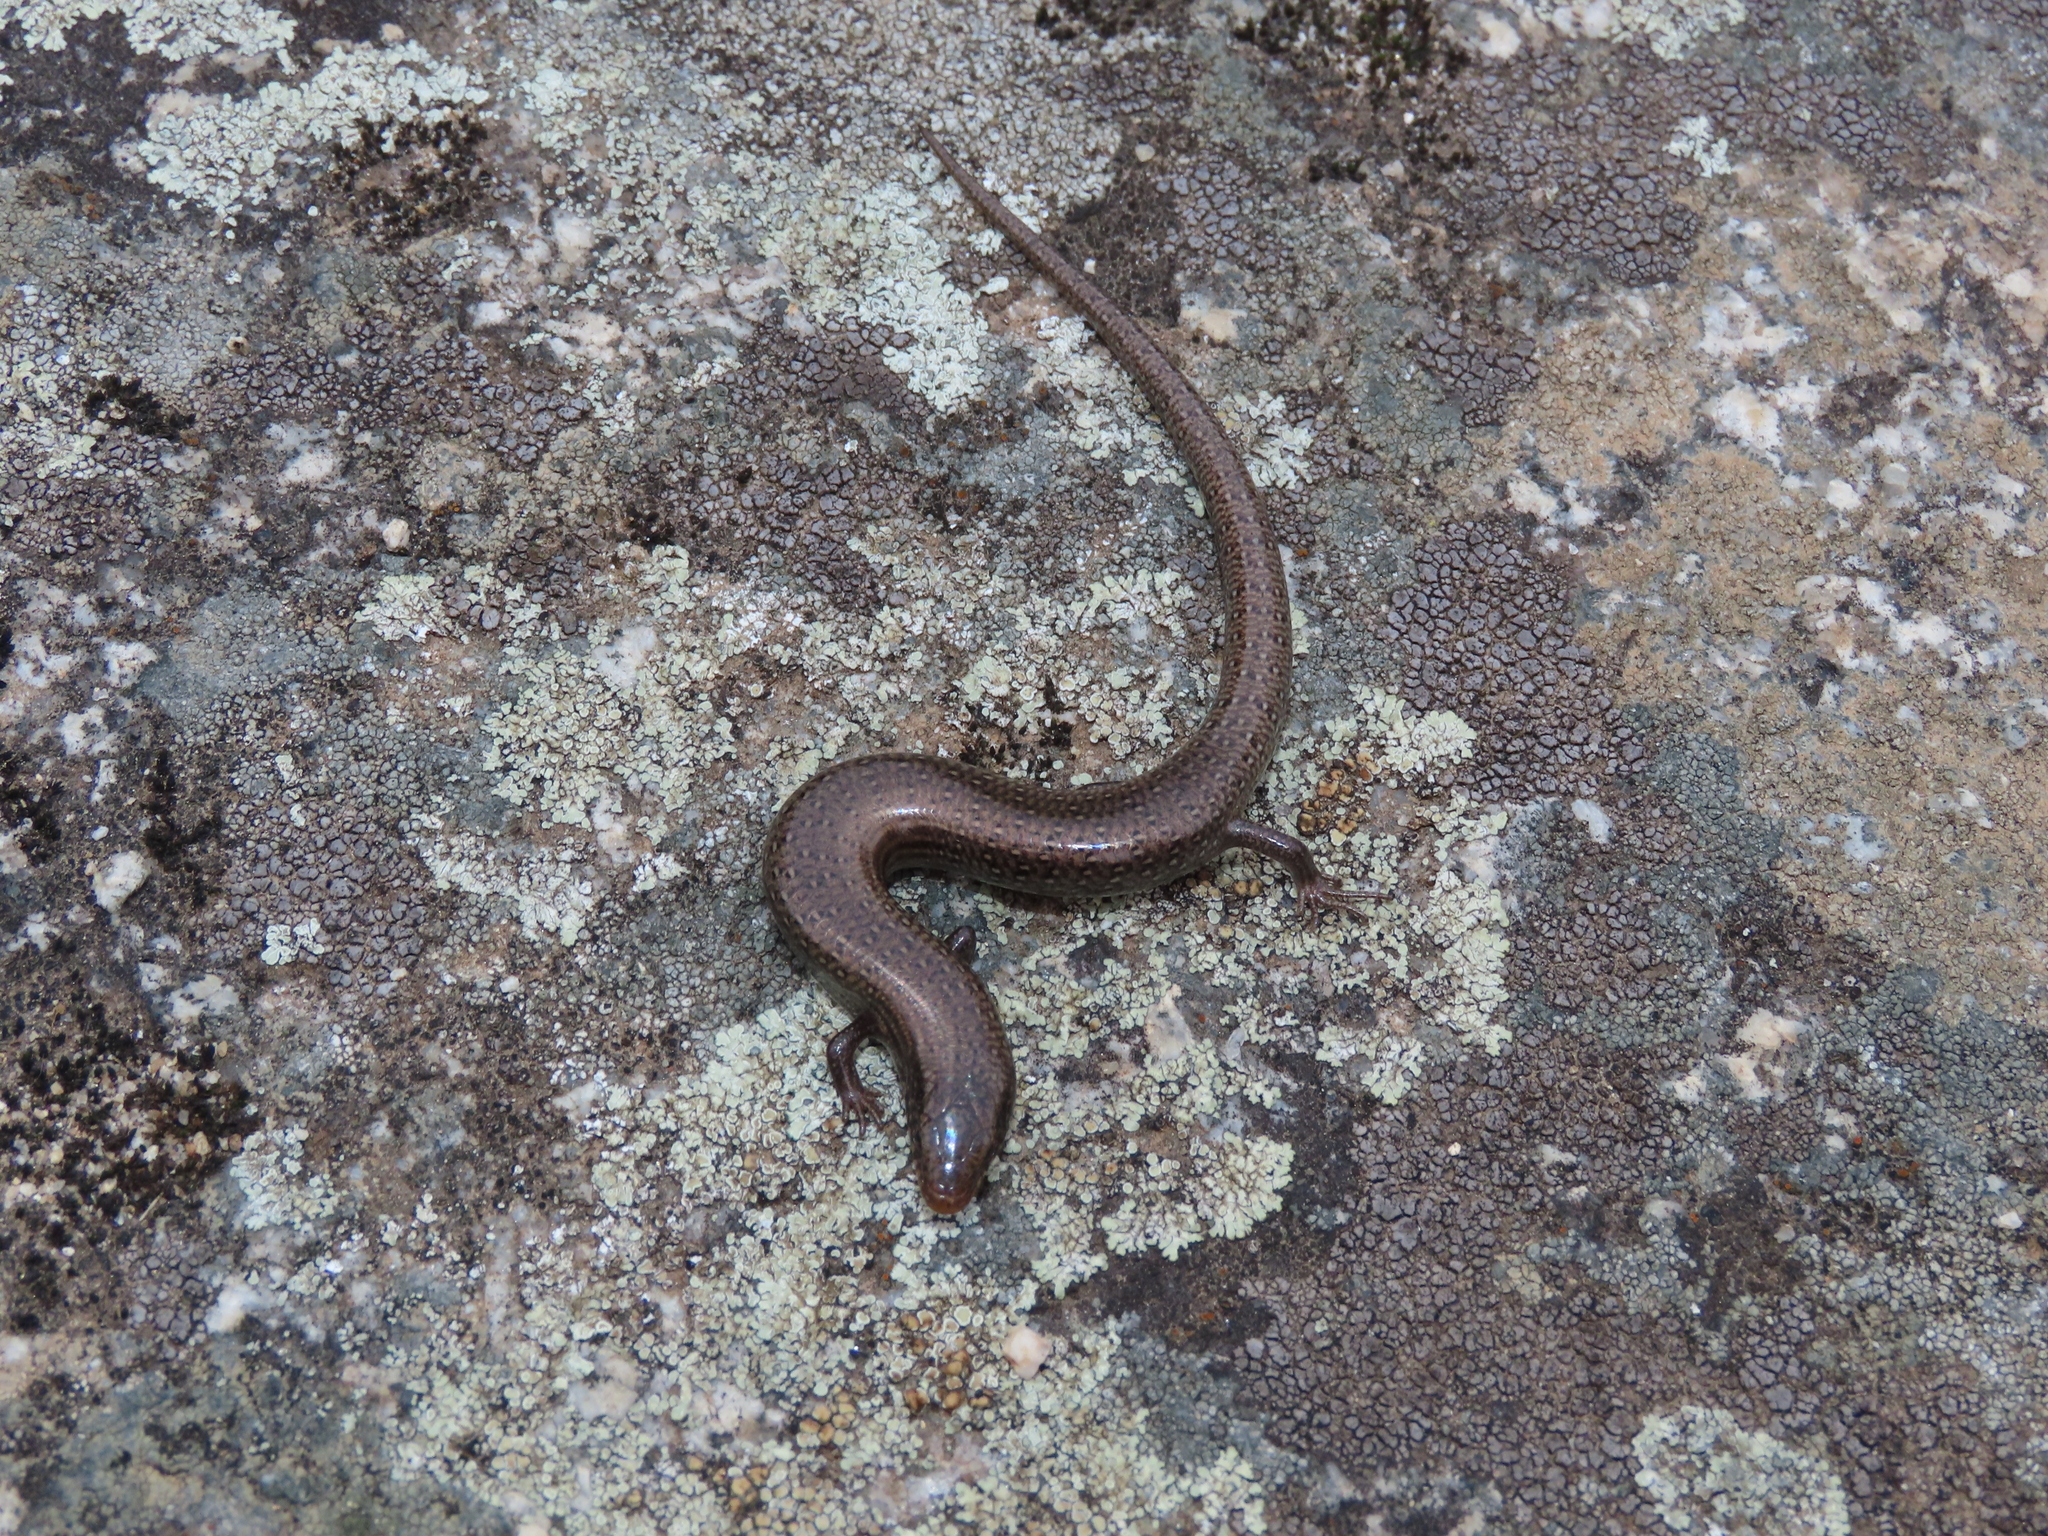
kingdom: Animalia
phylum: Chordata
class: Squamata
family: Scincidae
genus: Chalcides
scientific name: Chalcides bedriagai
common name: Spanish cylindrical skink
